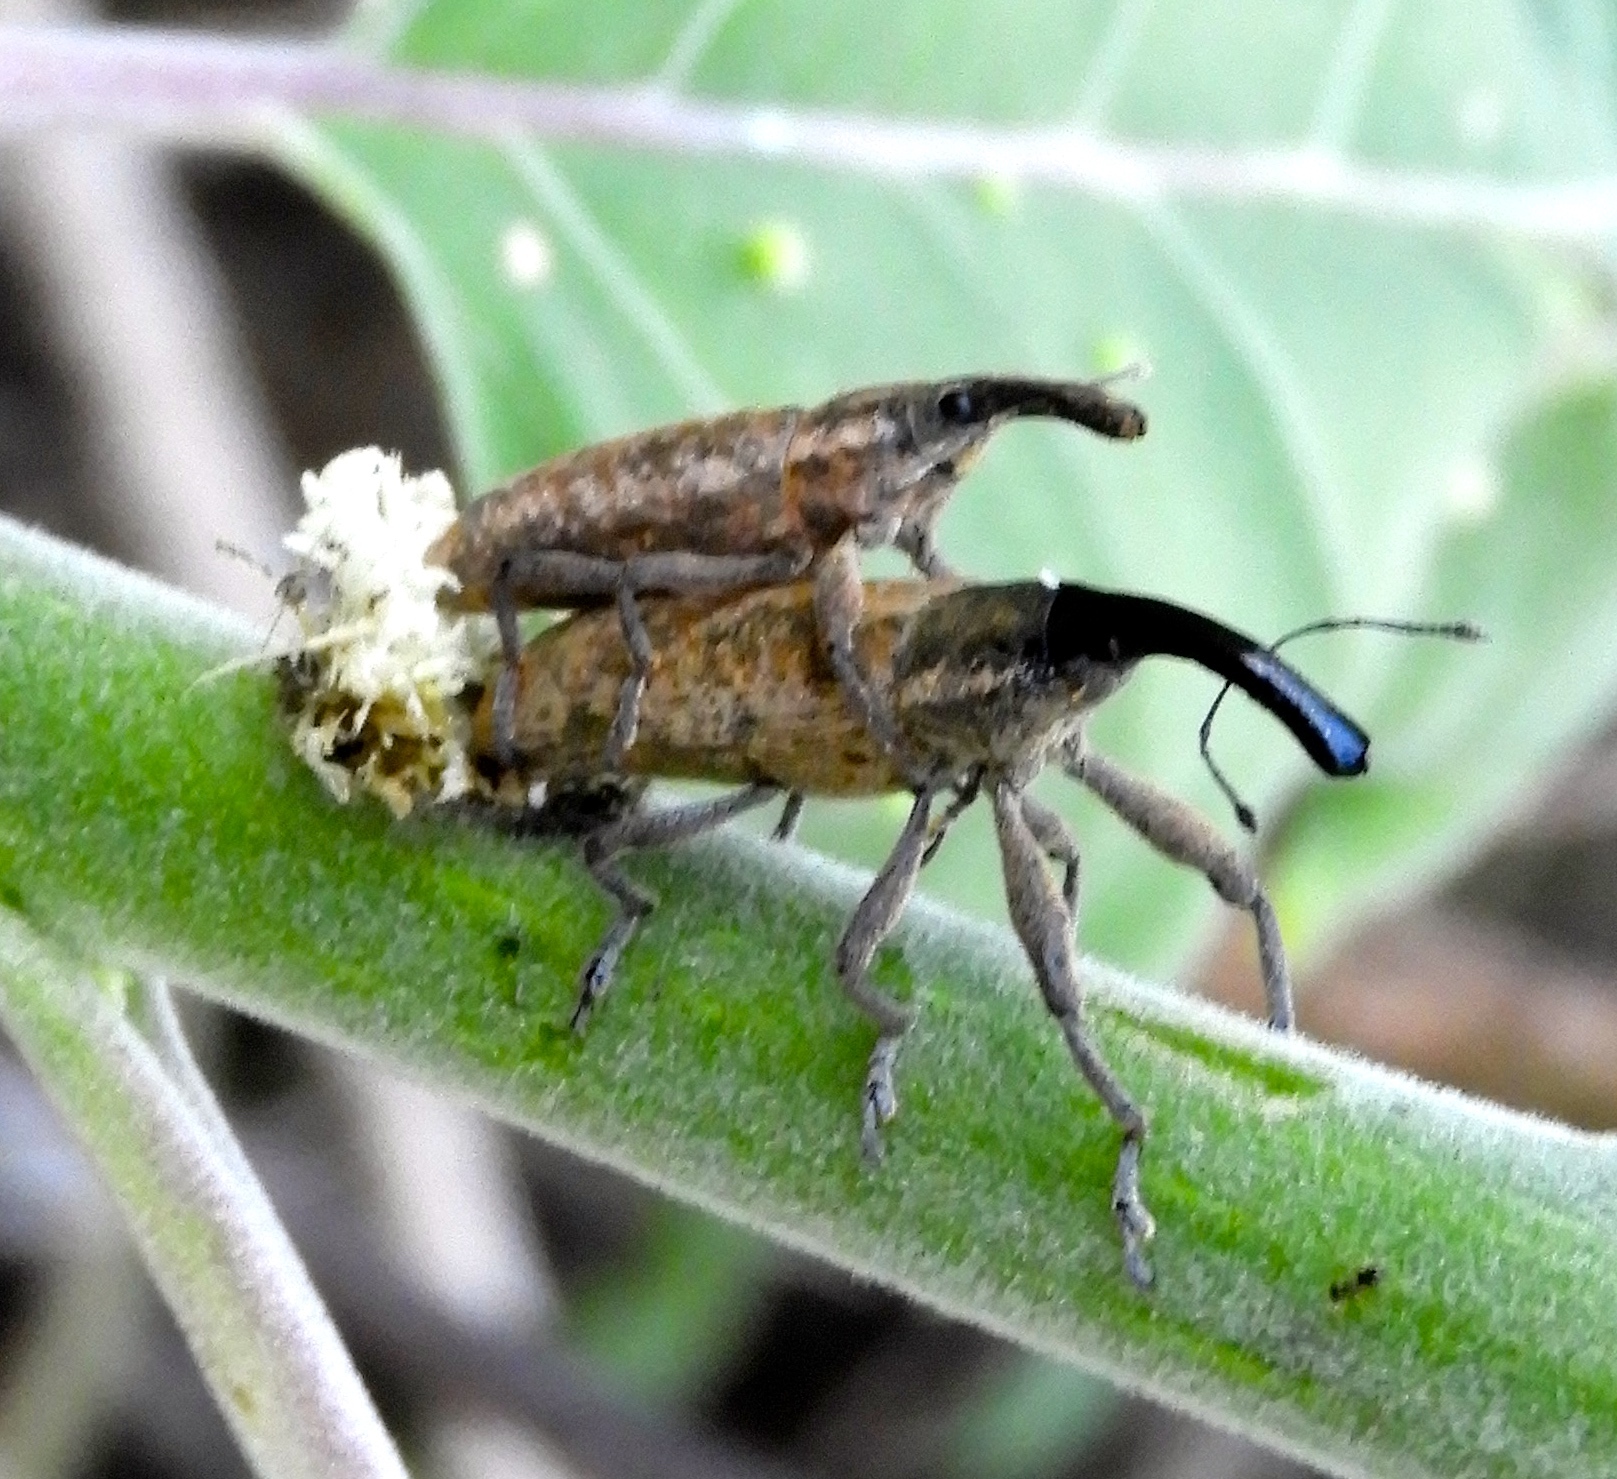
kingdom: Animalia
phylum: Arthropoda
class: Insecta
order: Coleoptera
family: Curculionidae
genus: Lixus
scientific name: Lixus
